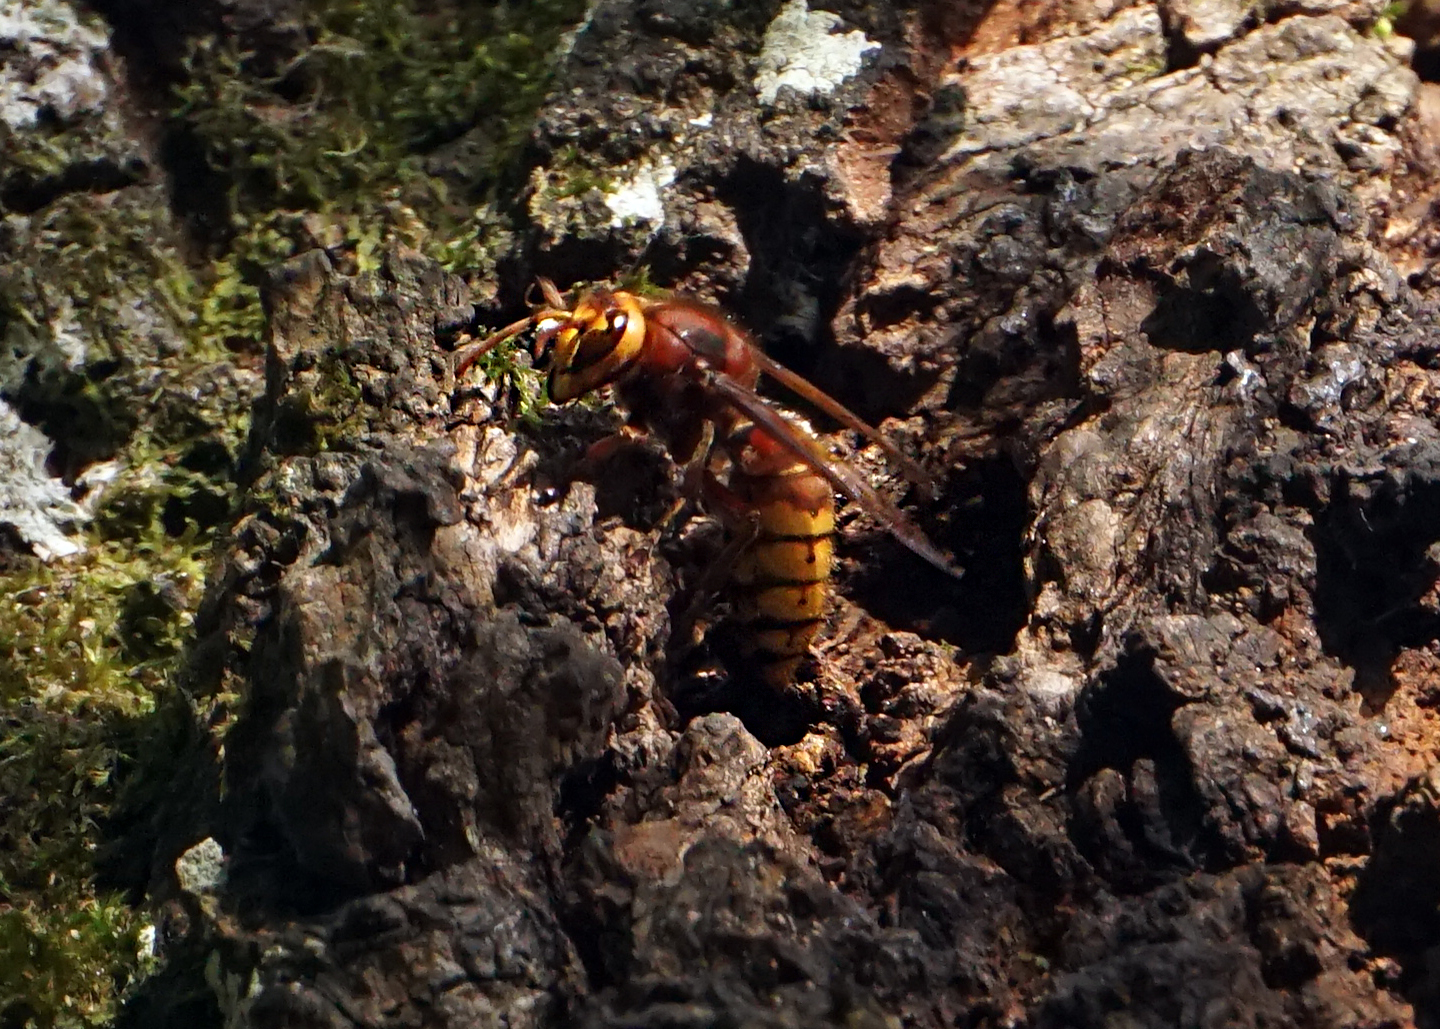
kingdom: Animalia
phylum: Arthropoda
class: Insecta
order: Hymenoptera
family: Vespidae
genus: Vespa
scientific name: Vespa crabro
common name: Hornet
